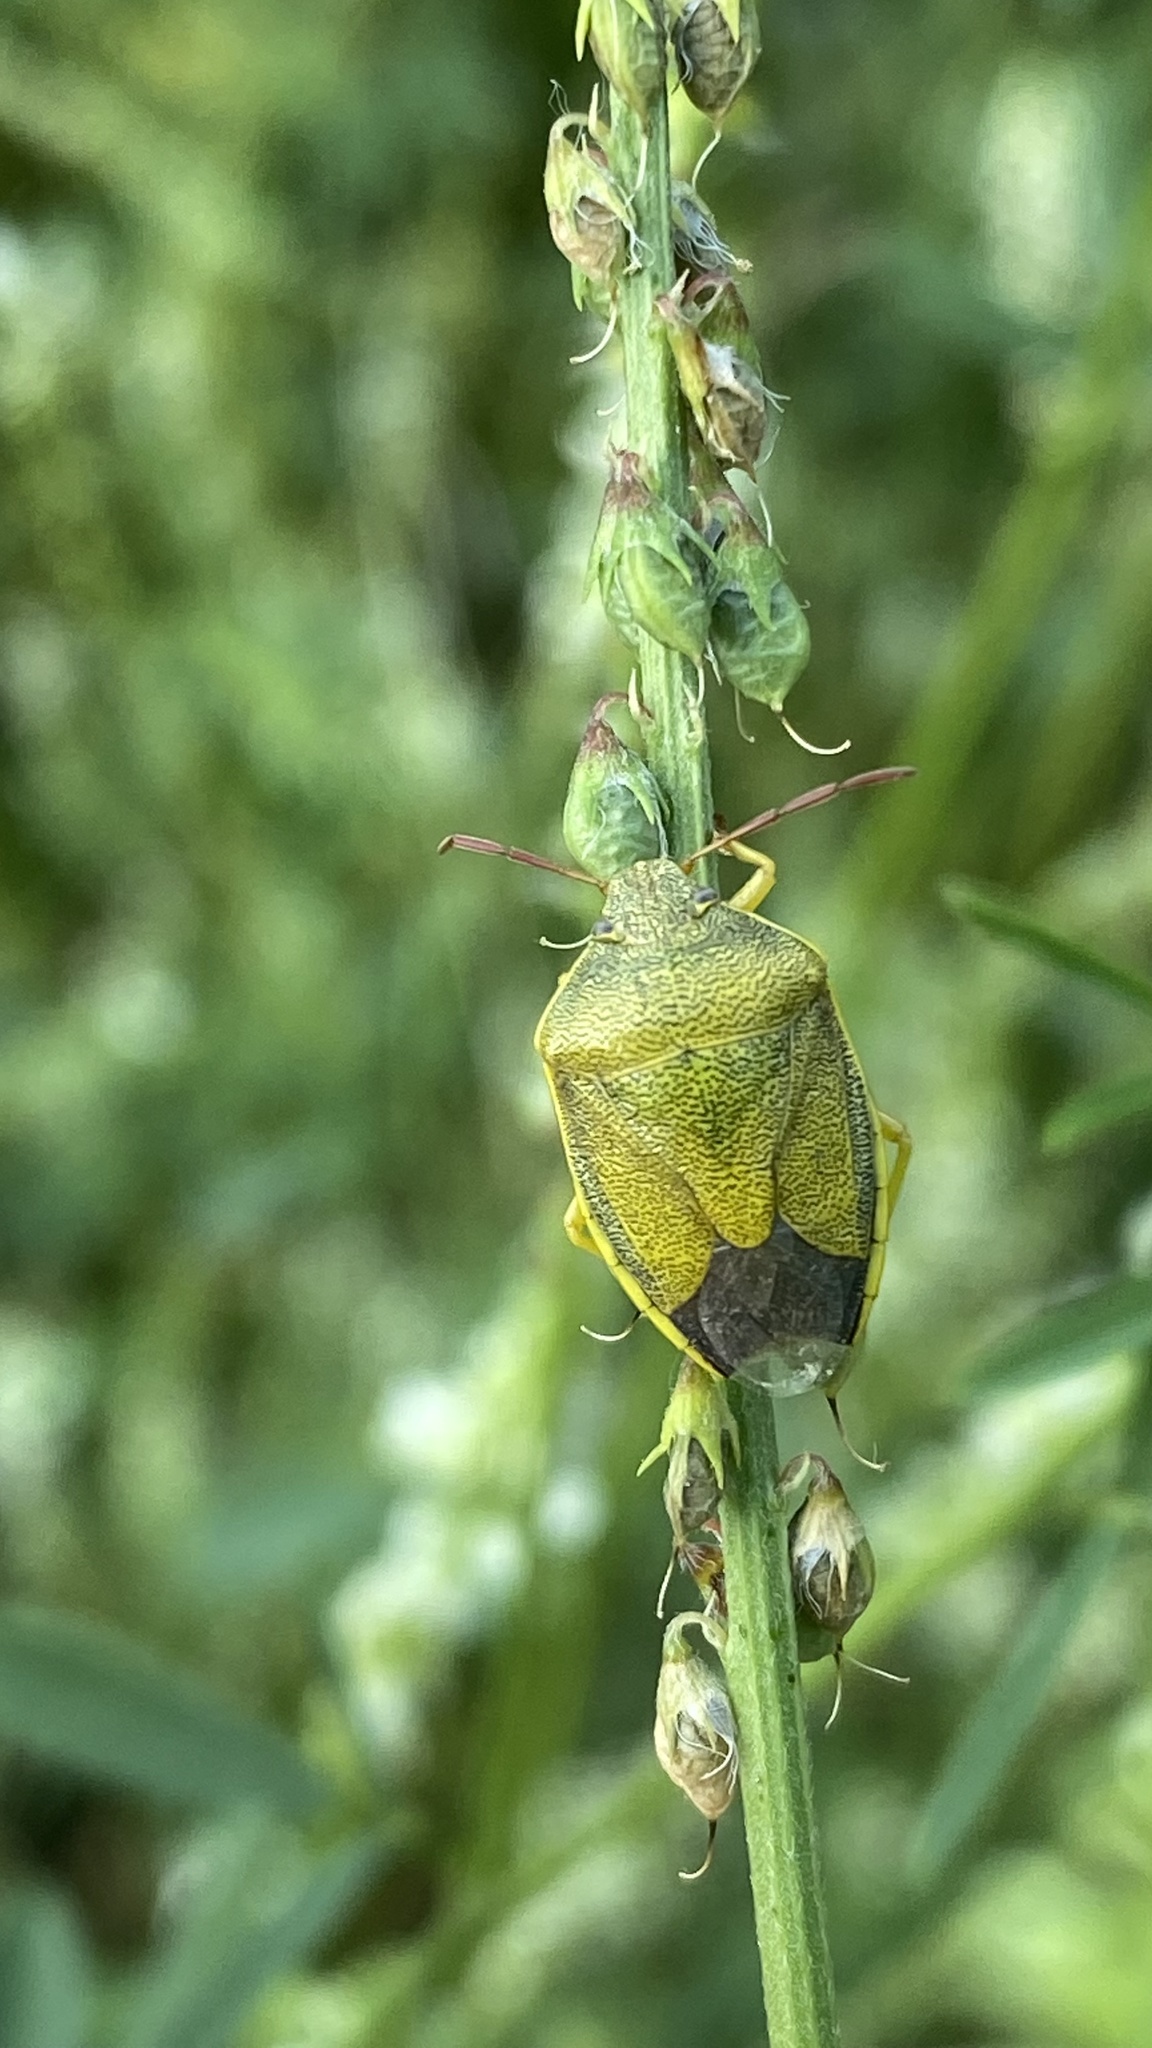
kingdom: Animalia
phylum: Arthropoda
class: Insecta
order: Hemiptera
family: Pentatomidae
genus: Piezodorus
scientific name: Piezodorus lituratus
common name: Stink bug
